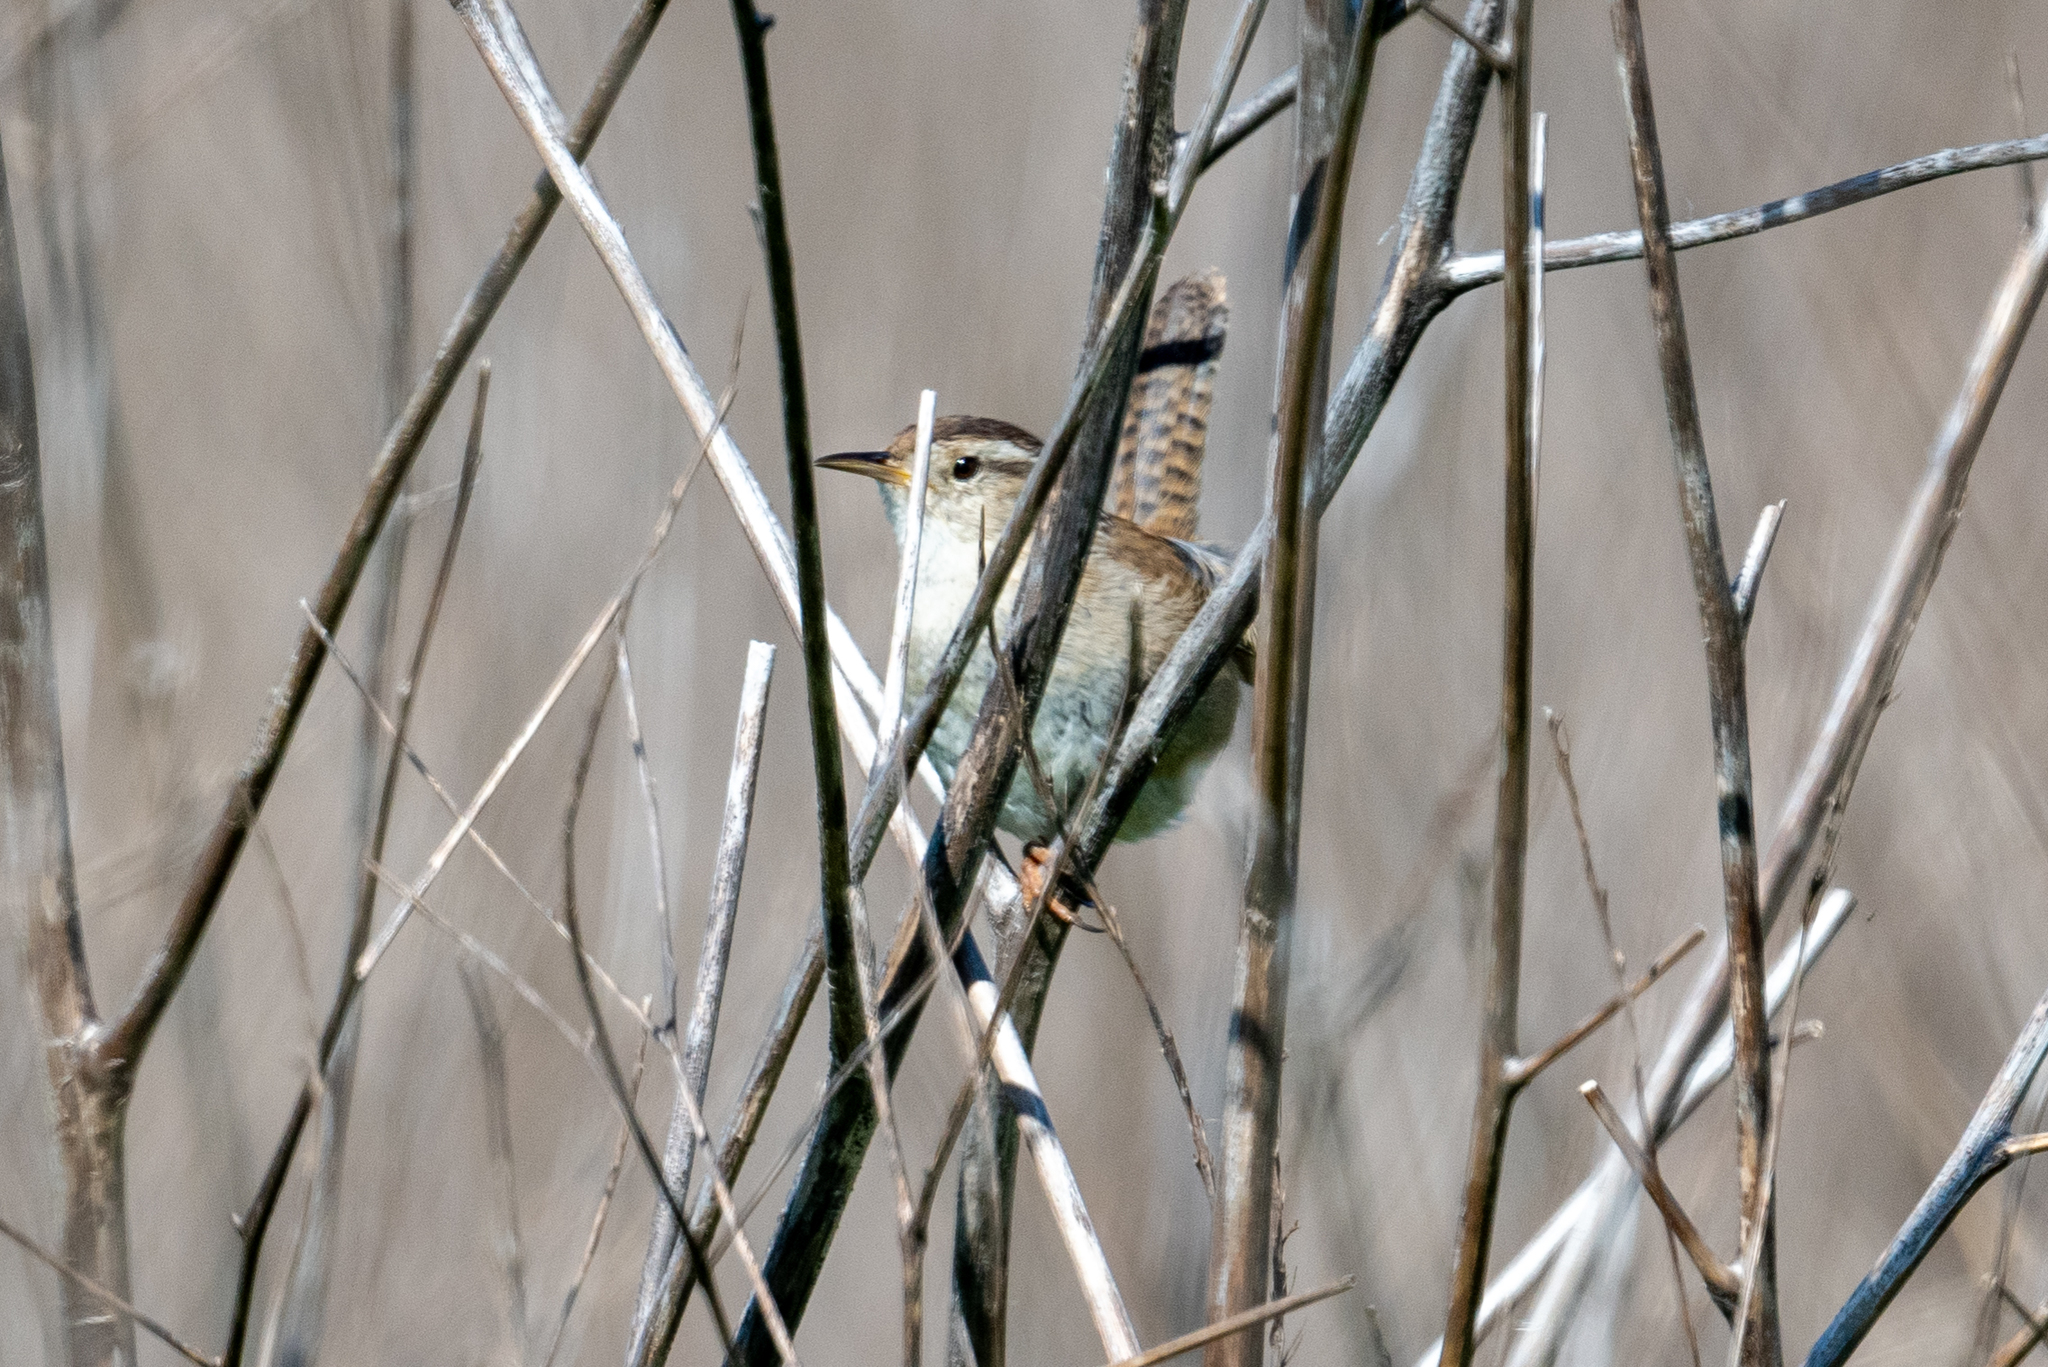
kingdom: Animalia
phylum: Chordata
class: Aves
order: Passeriformes
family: Troglodytidae
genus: Cistothorus
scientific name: Cistothorus palustris
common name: Marsh wren
